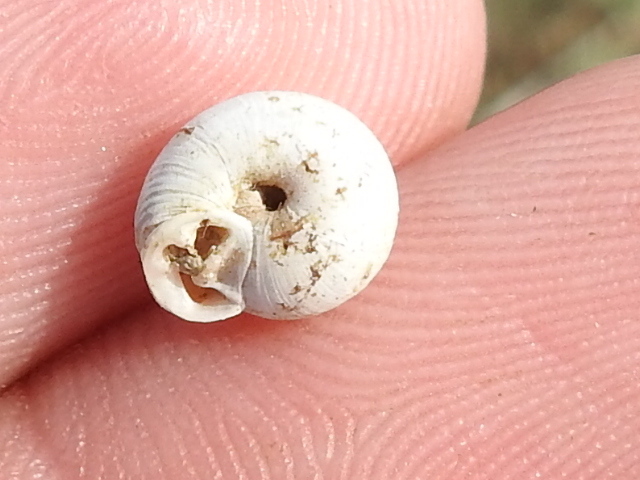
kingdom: Animalia
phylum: Mollusca
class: Gastropoda
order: Stylommatophora
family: Polygyridae
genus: Linisa
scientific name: Linisa texasiana
